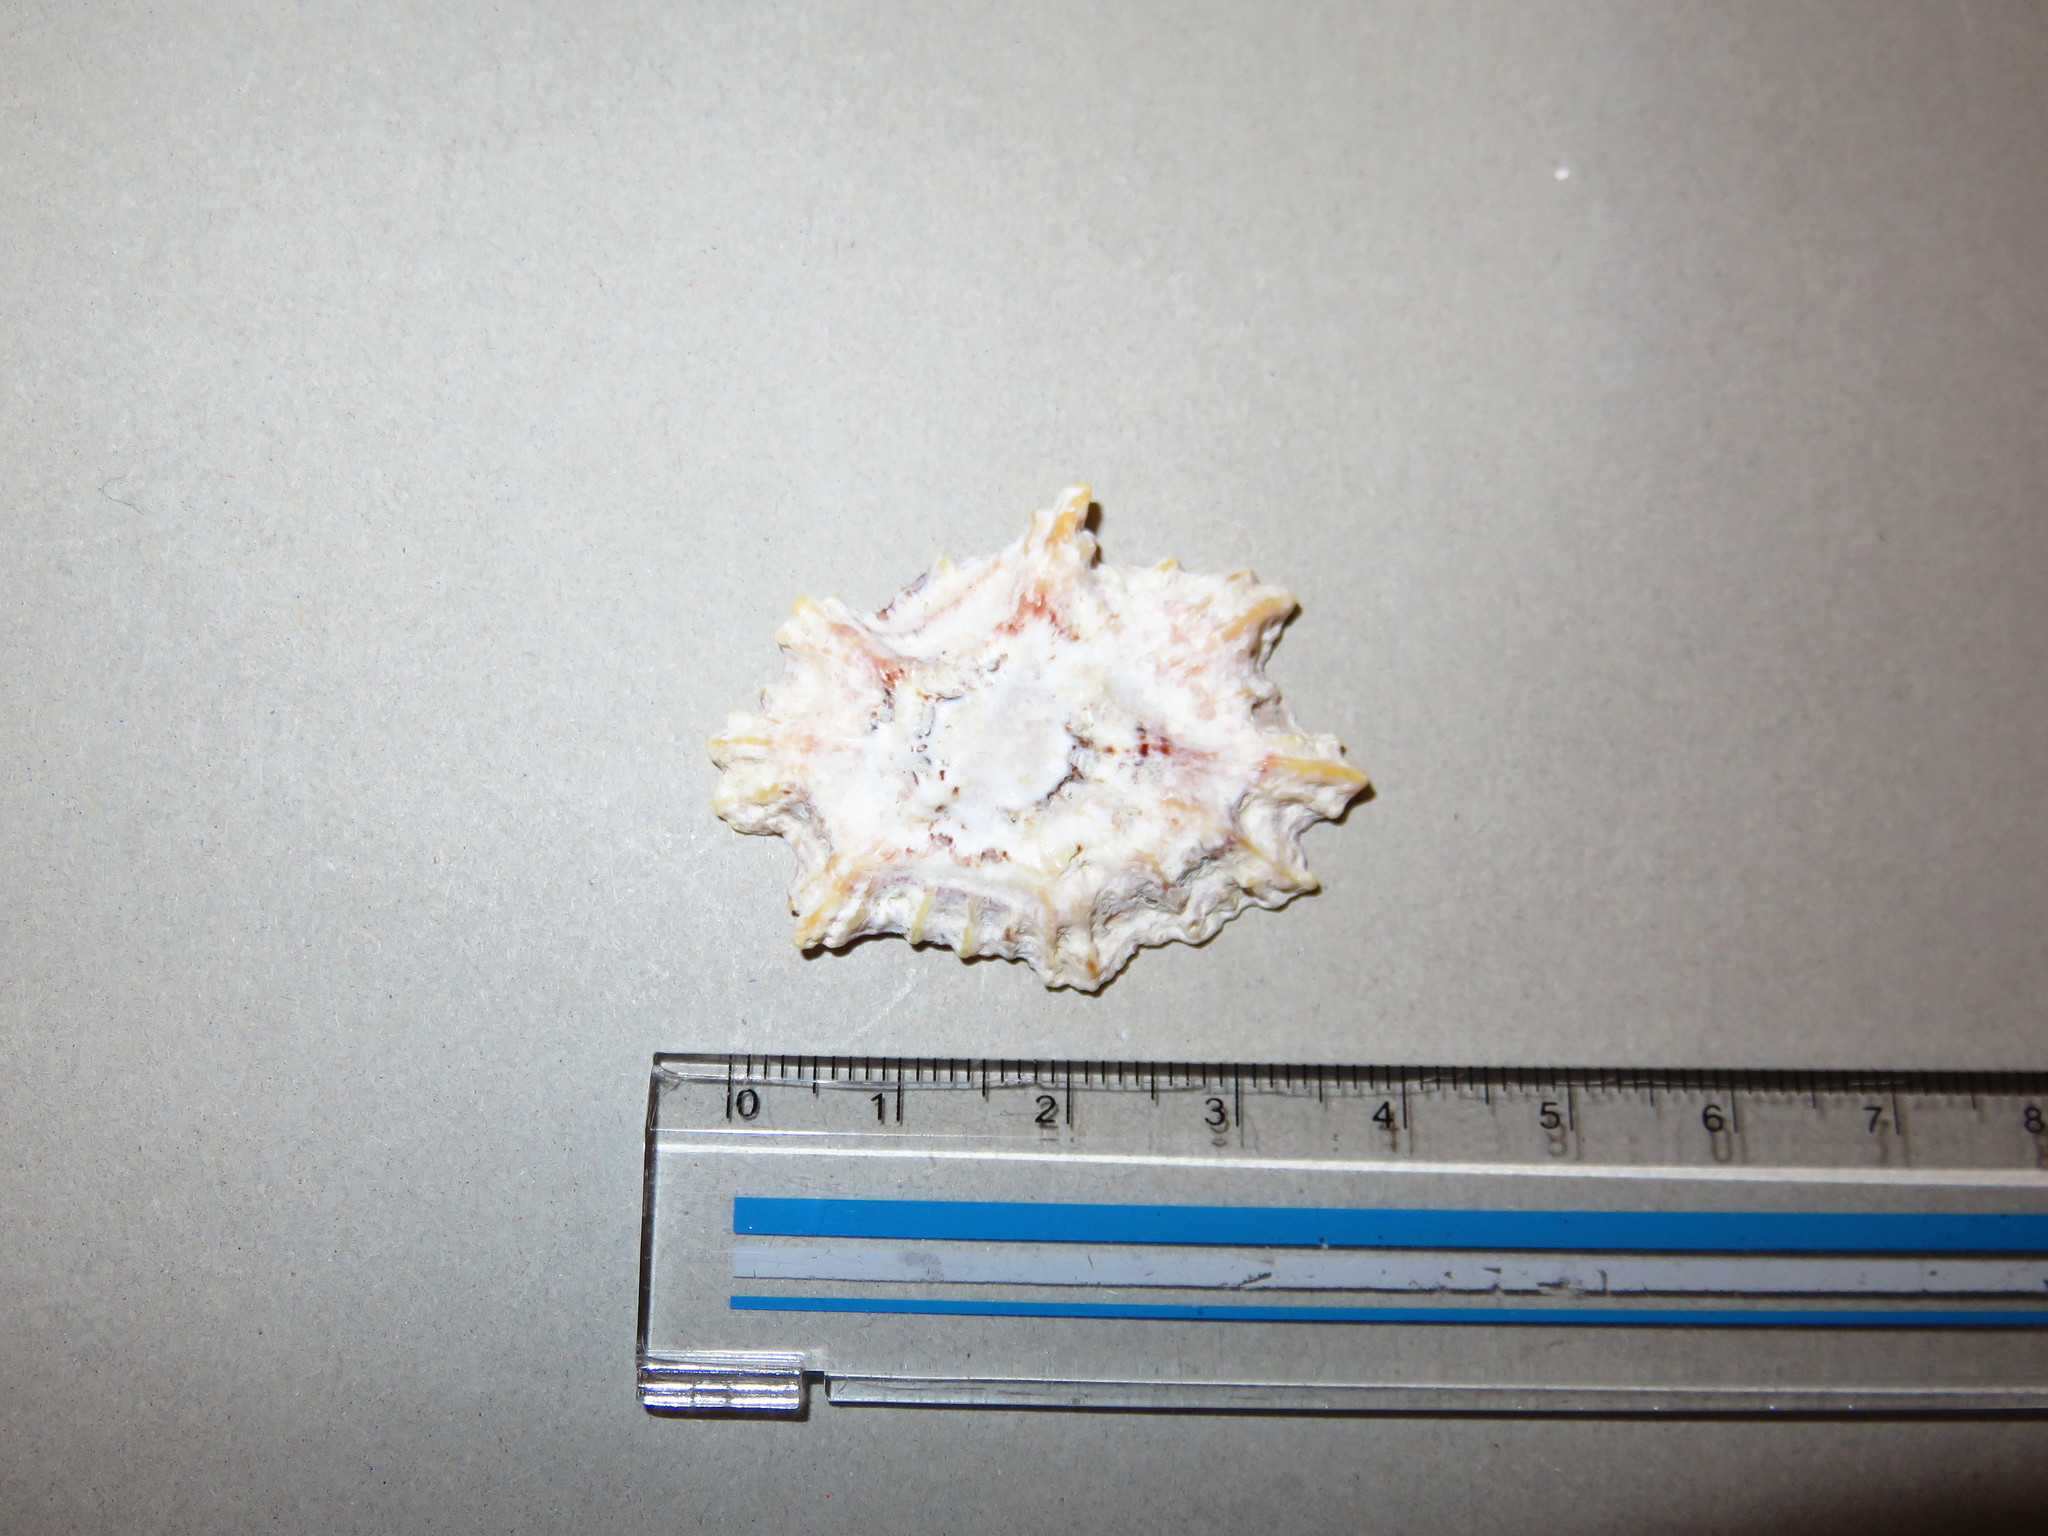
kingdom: Animalia
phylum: Mollusca
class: Gastropoda
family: Patellidae
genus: Scutellastra
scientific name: Scutellastra flexuosa
